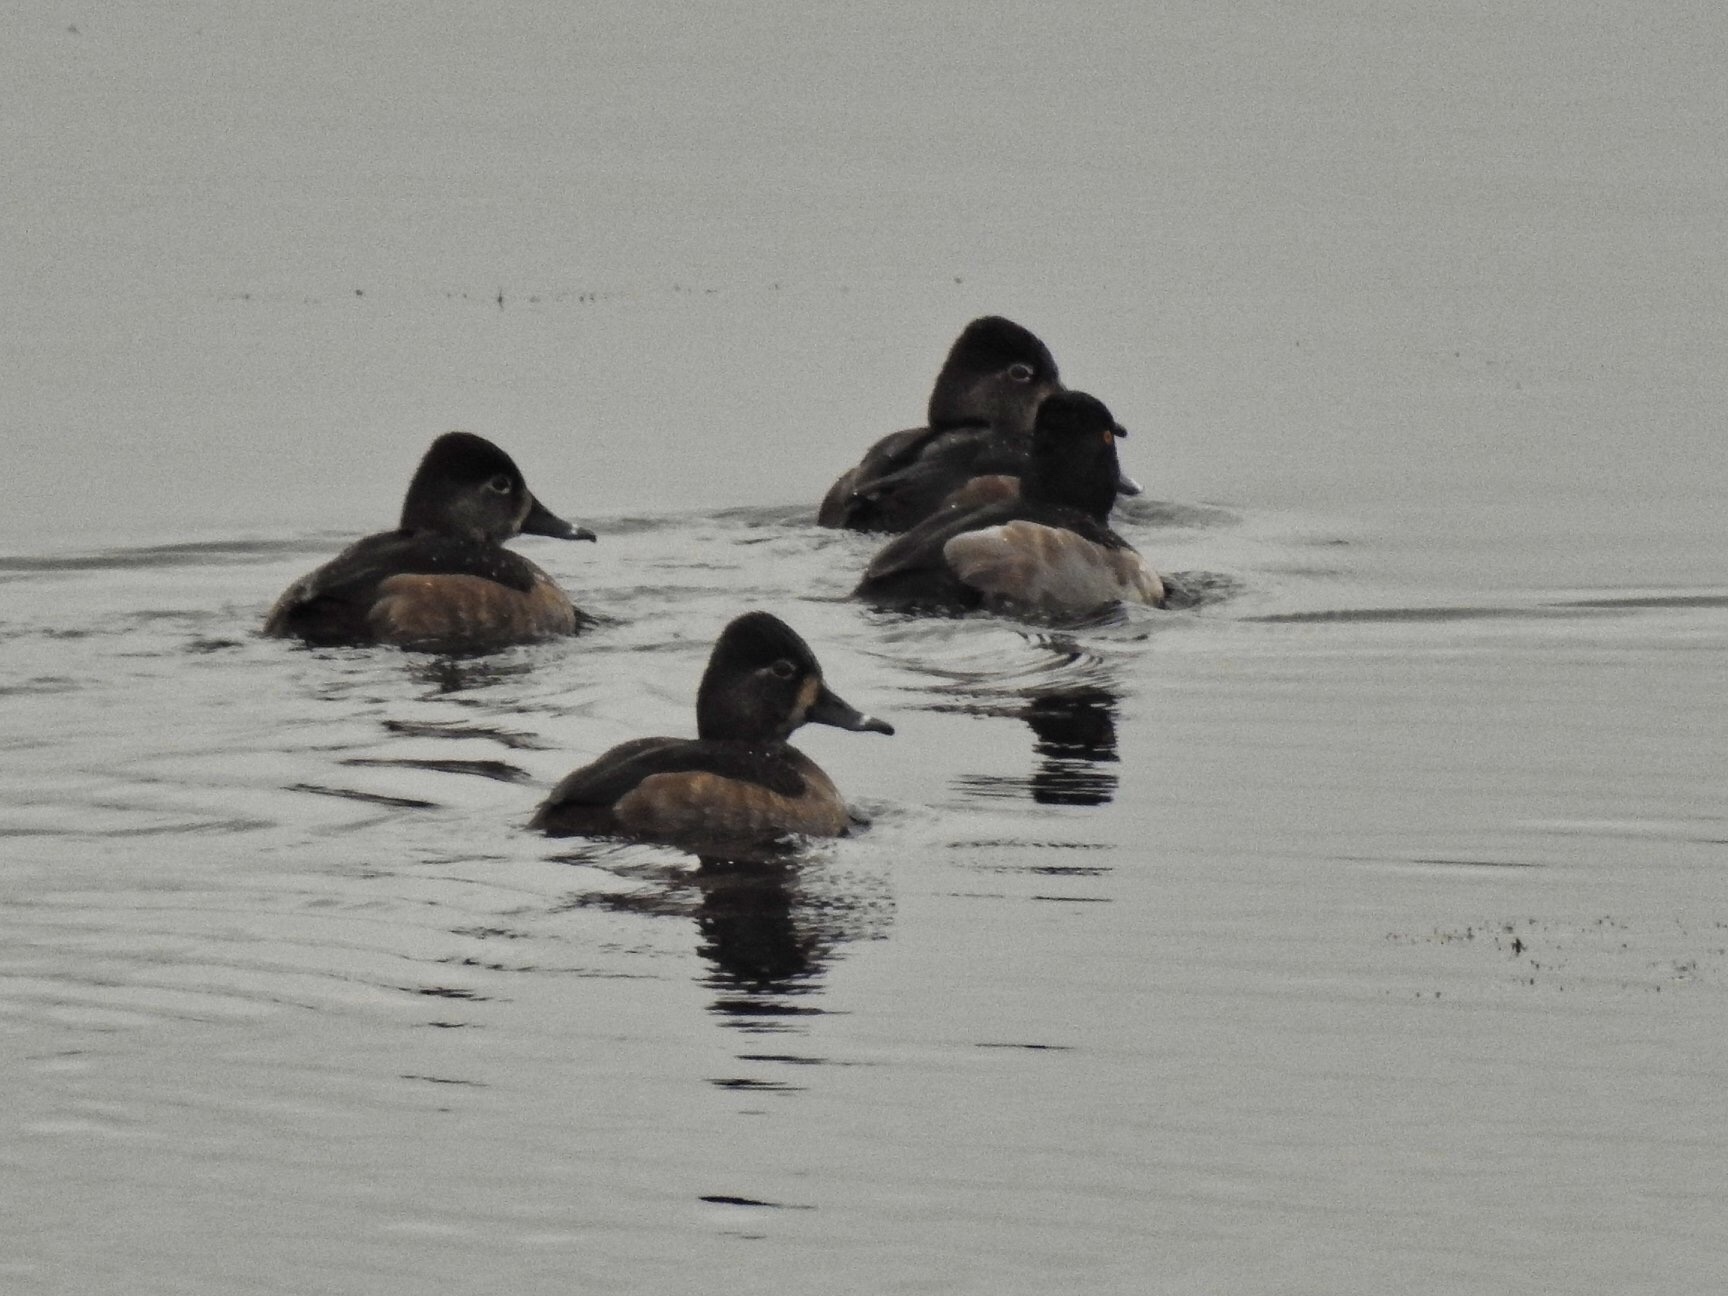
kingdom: Animalia
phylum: Chordata
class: Aves
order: Anseriformes
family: Anatidae
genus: Aythya
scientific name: Aythya collaris
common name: Ring-necked duck
